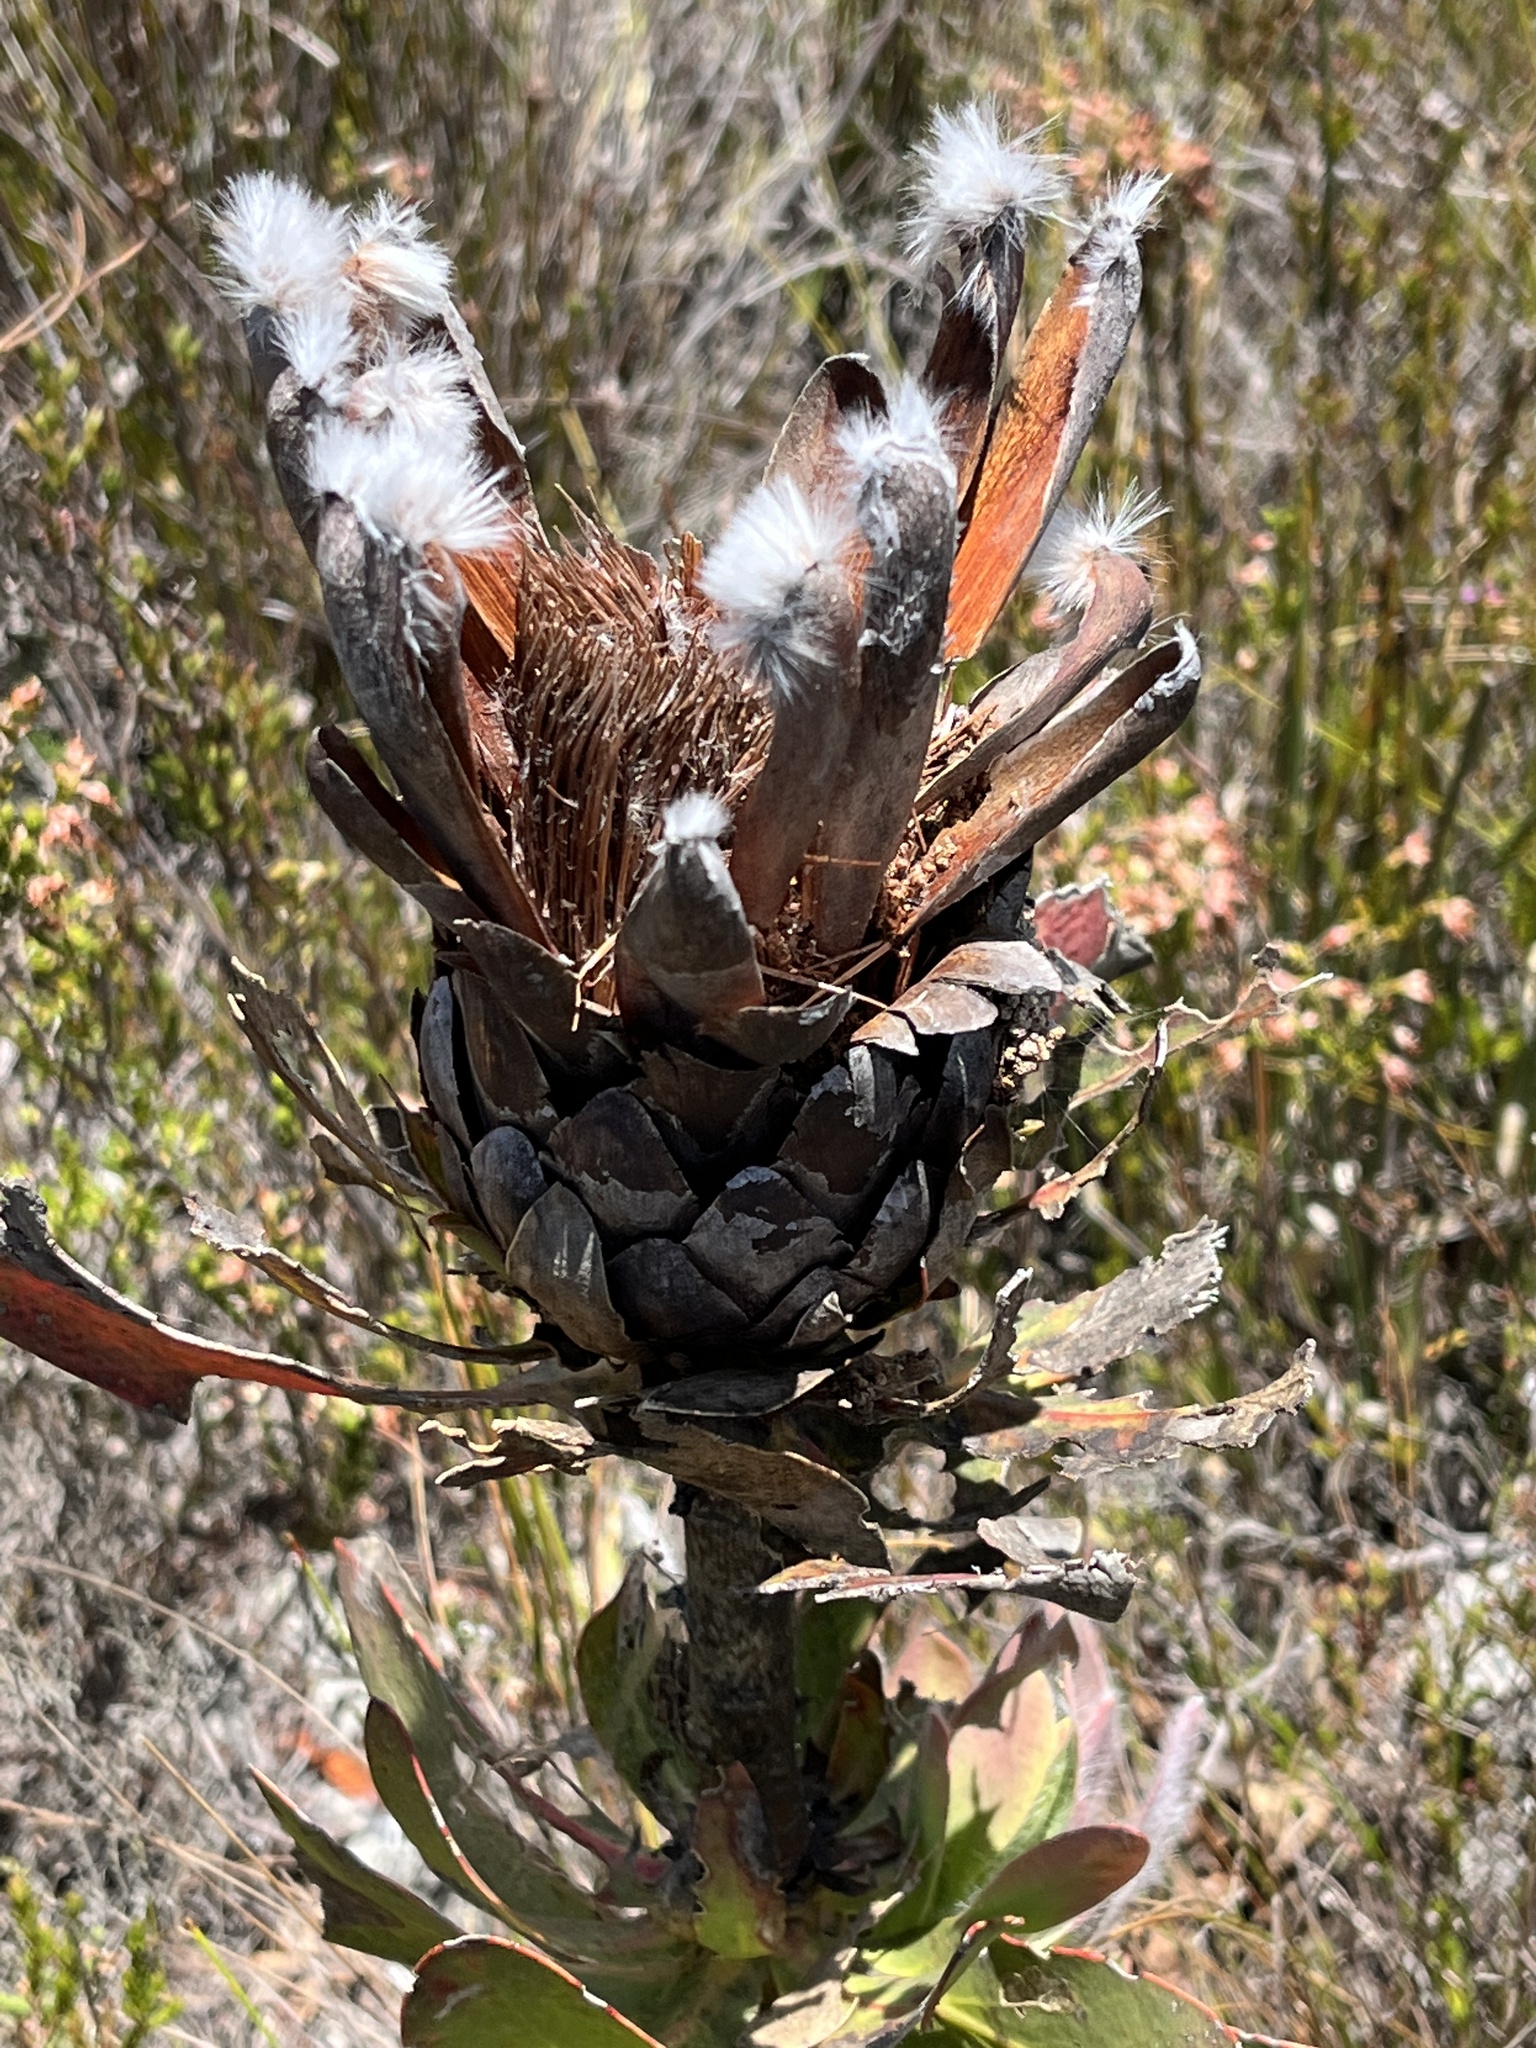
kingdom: Plantae
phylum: Tracheophyta
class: Magnoliopsida
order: Proteales
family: Proteaceae
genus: Protea
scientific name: Protea grandiceps
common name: Red sugarbush
